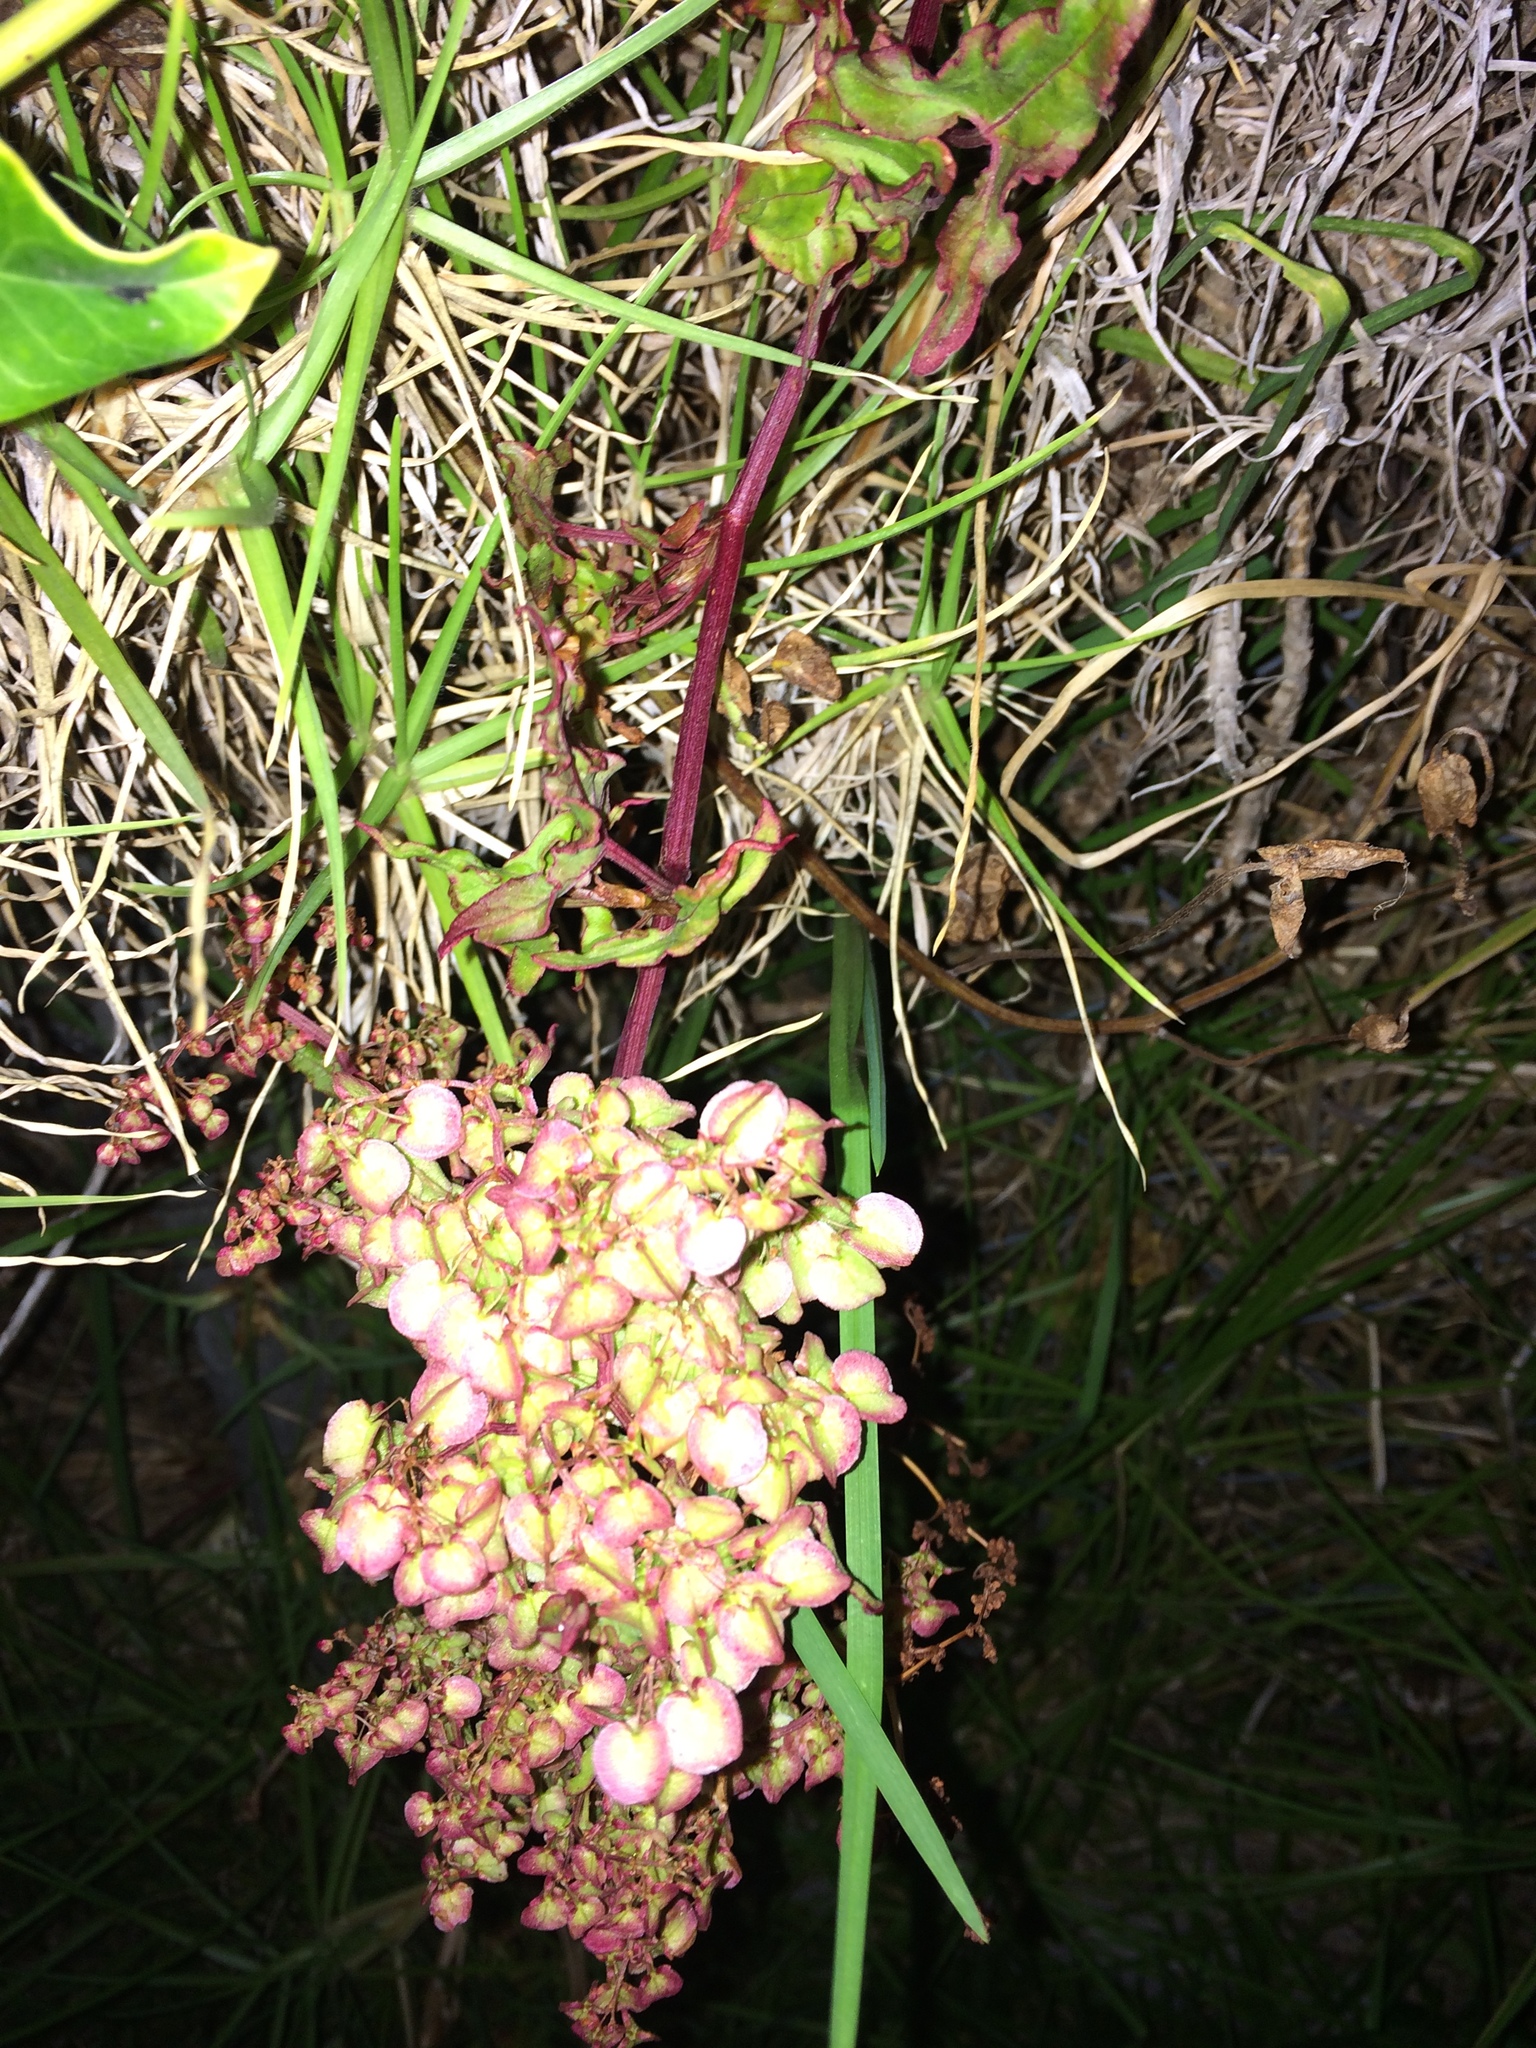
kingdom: Plantae
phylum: Tracheophyta
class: Magnoliopsida
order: Caryophyllales
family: Polygonaceae
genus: Rumex
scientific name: Rumex sagittatus
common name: Climbing dock
